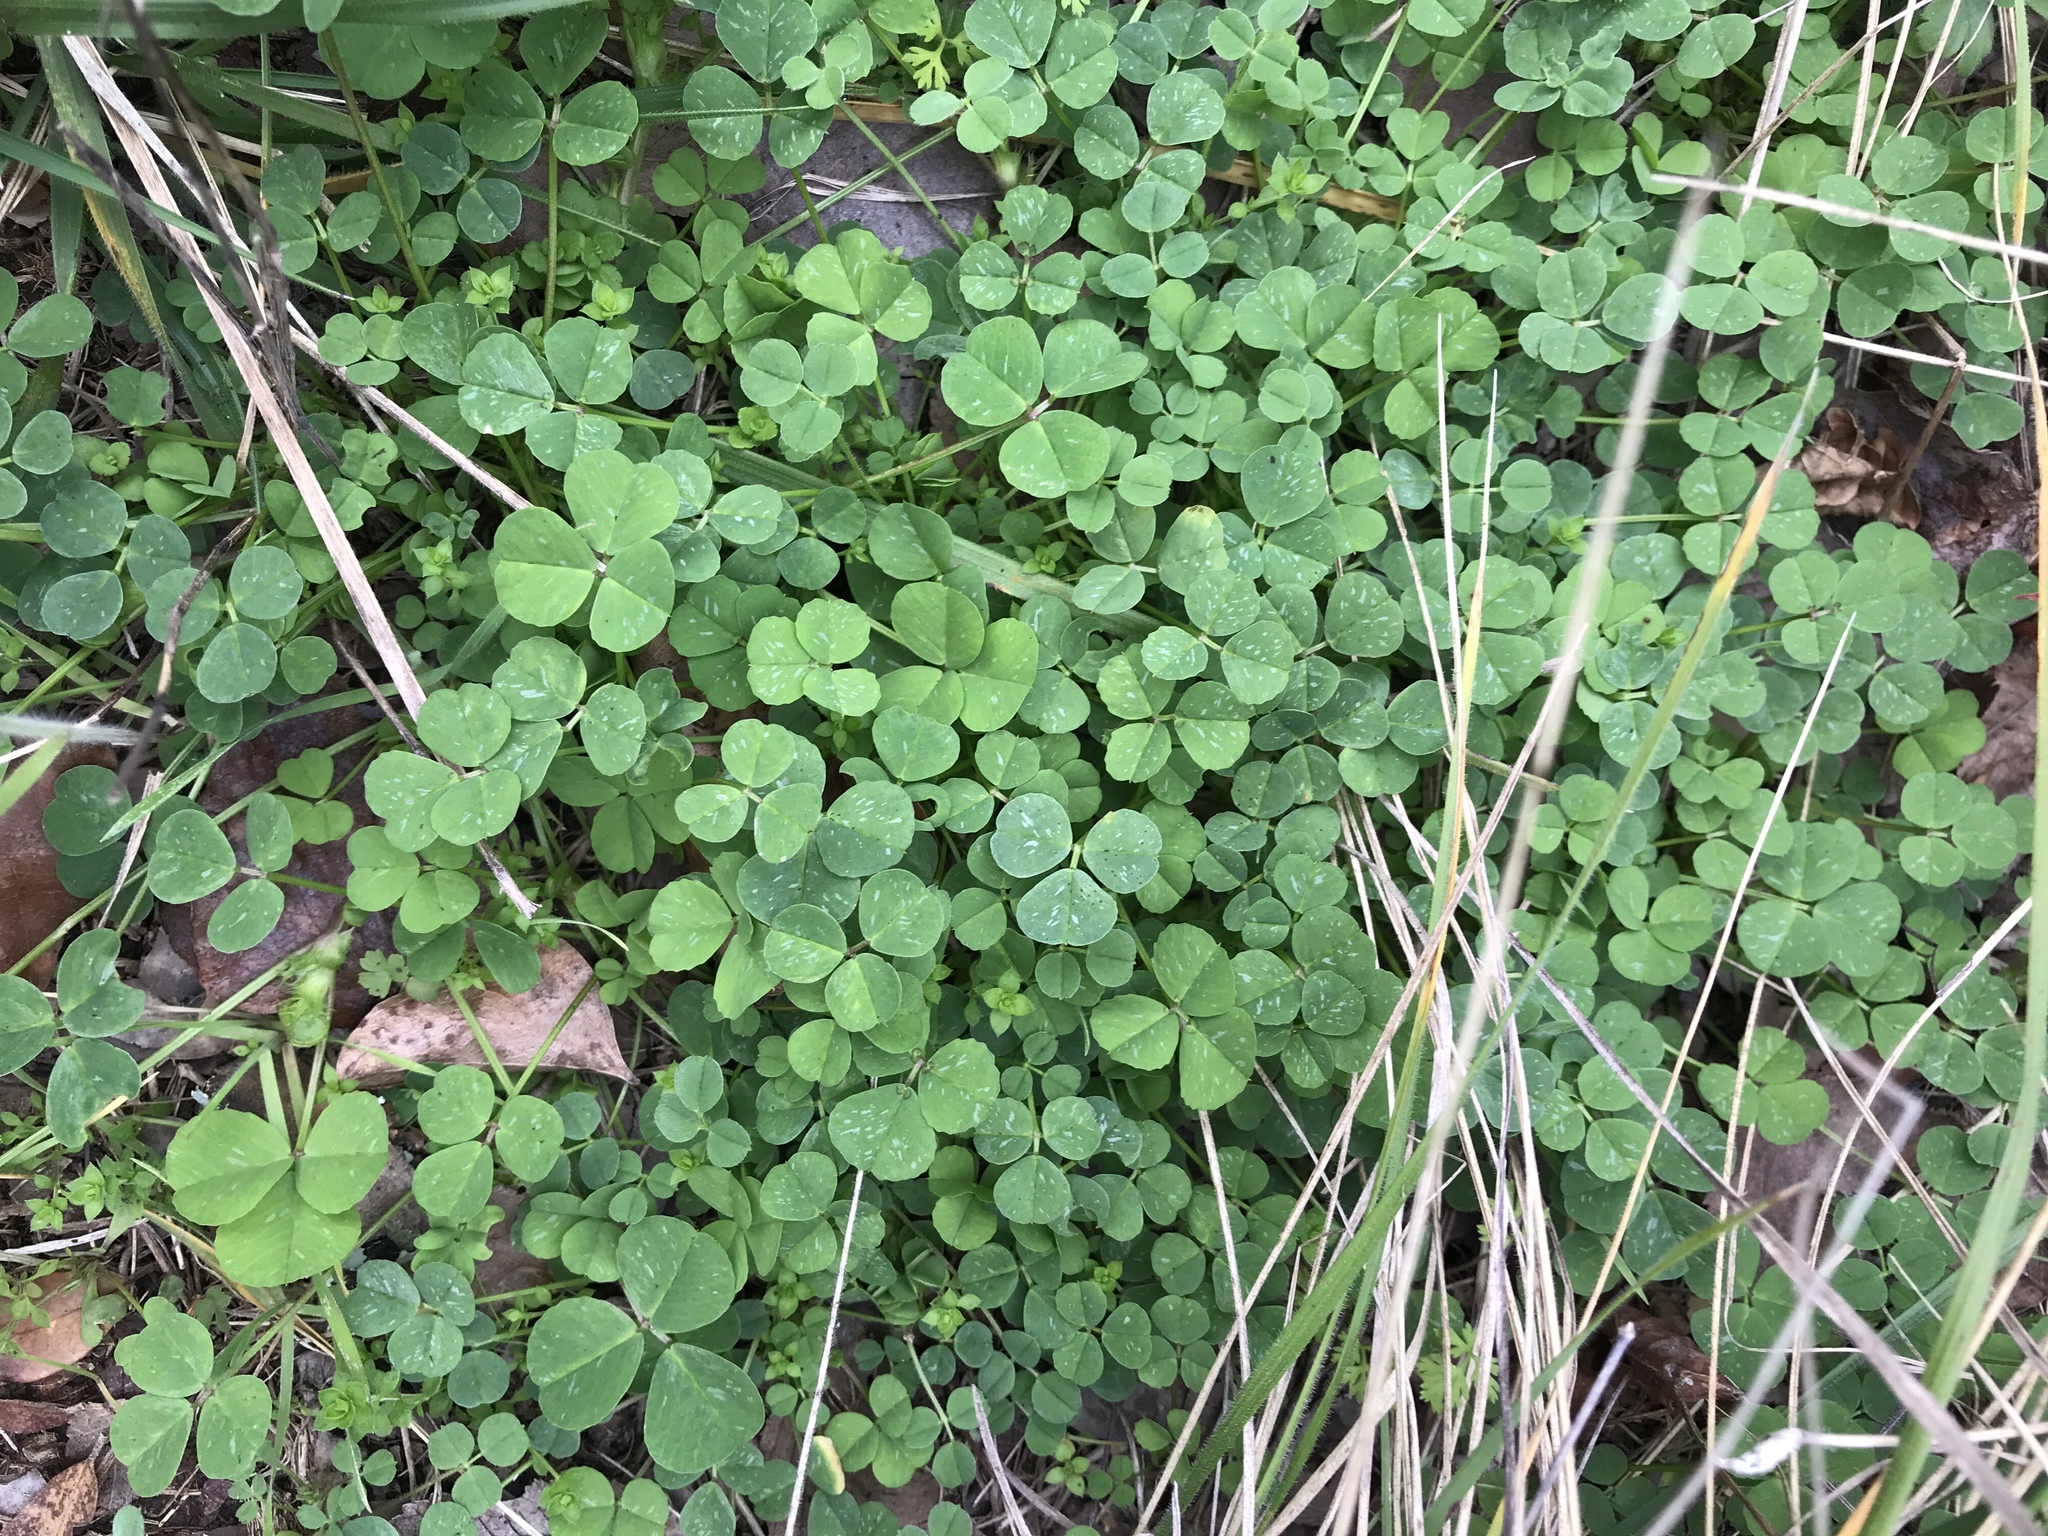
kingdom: Plantae
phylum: Tracheophyta
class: Magnoliopsida
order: Fabales
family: Fabaceae
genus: Medicago
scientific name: Medicago polymorpha
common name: Burclover
